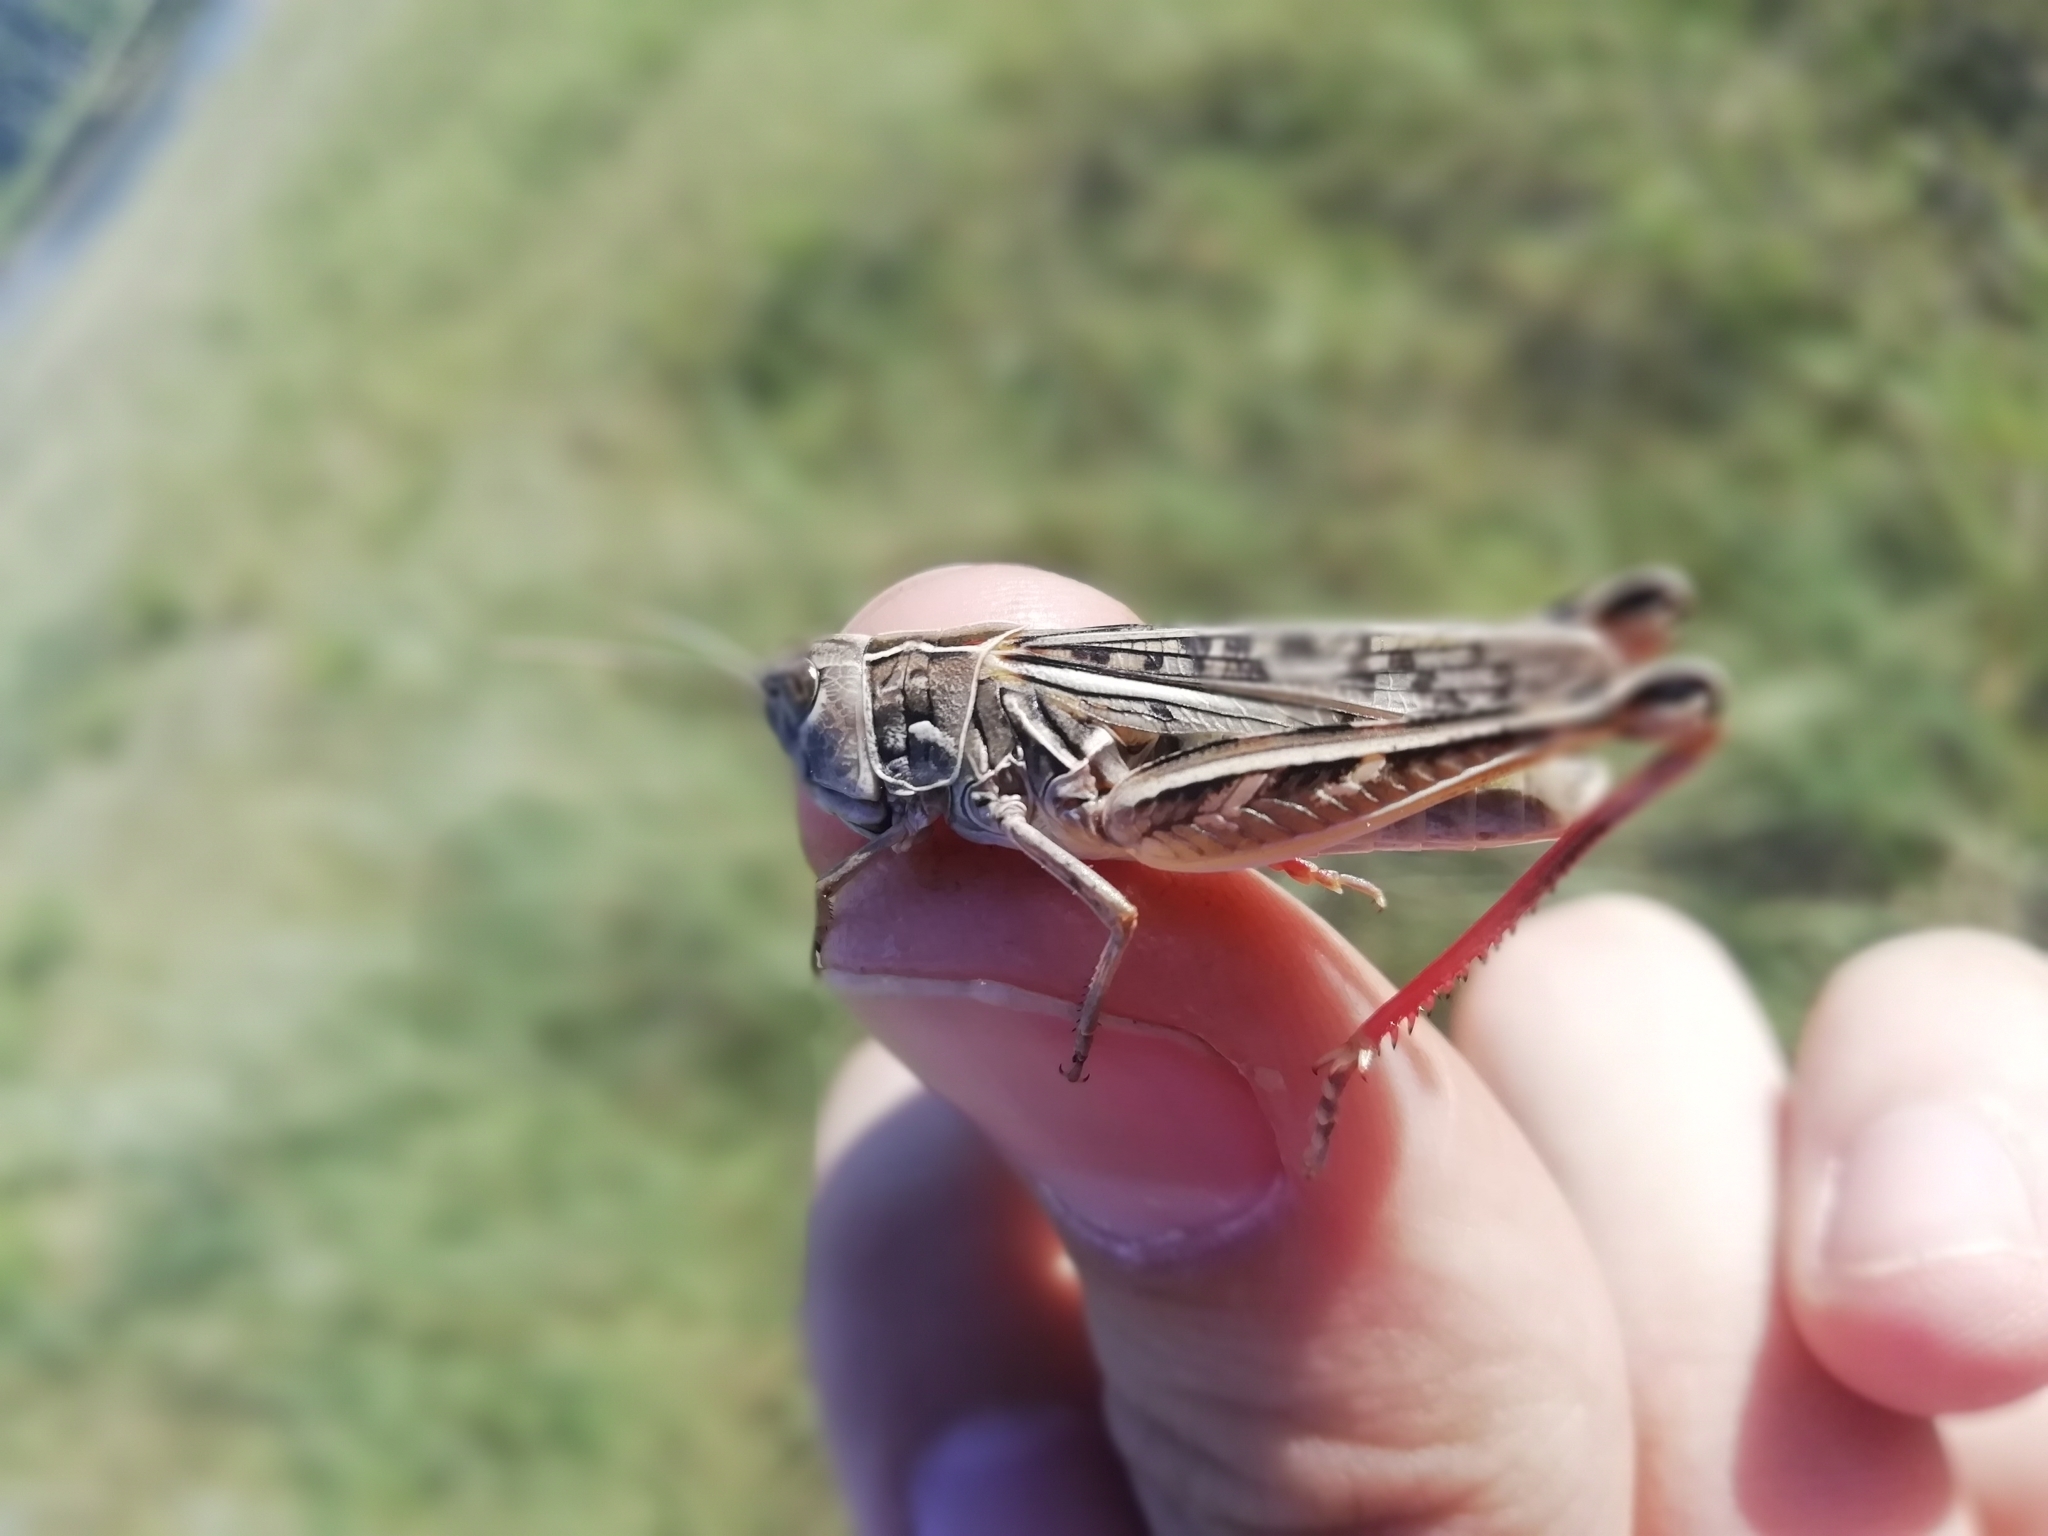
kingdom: Animalia
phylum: Arthropoda
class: Insecta
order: Orthoptera
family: Acrididae
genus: Arcyptera
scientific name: Arcyptera microptera
